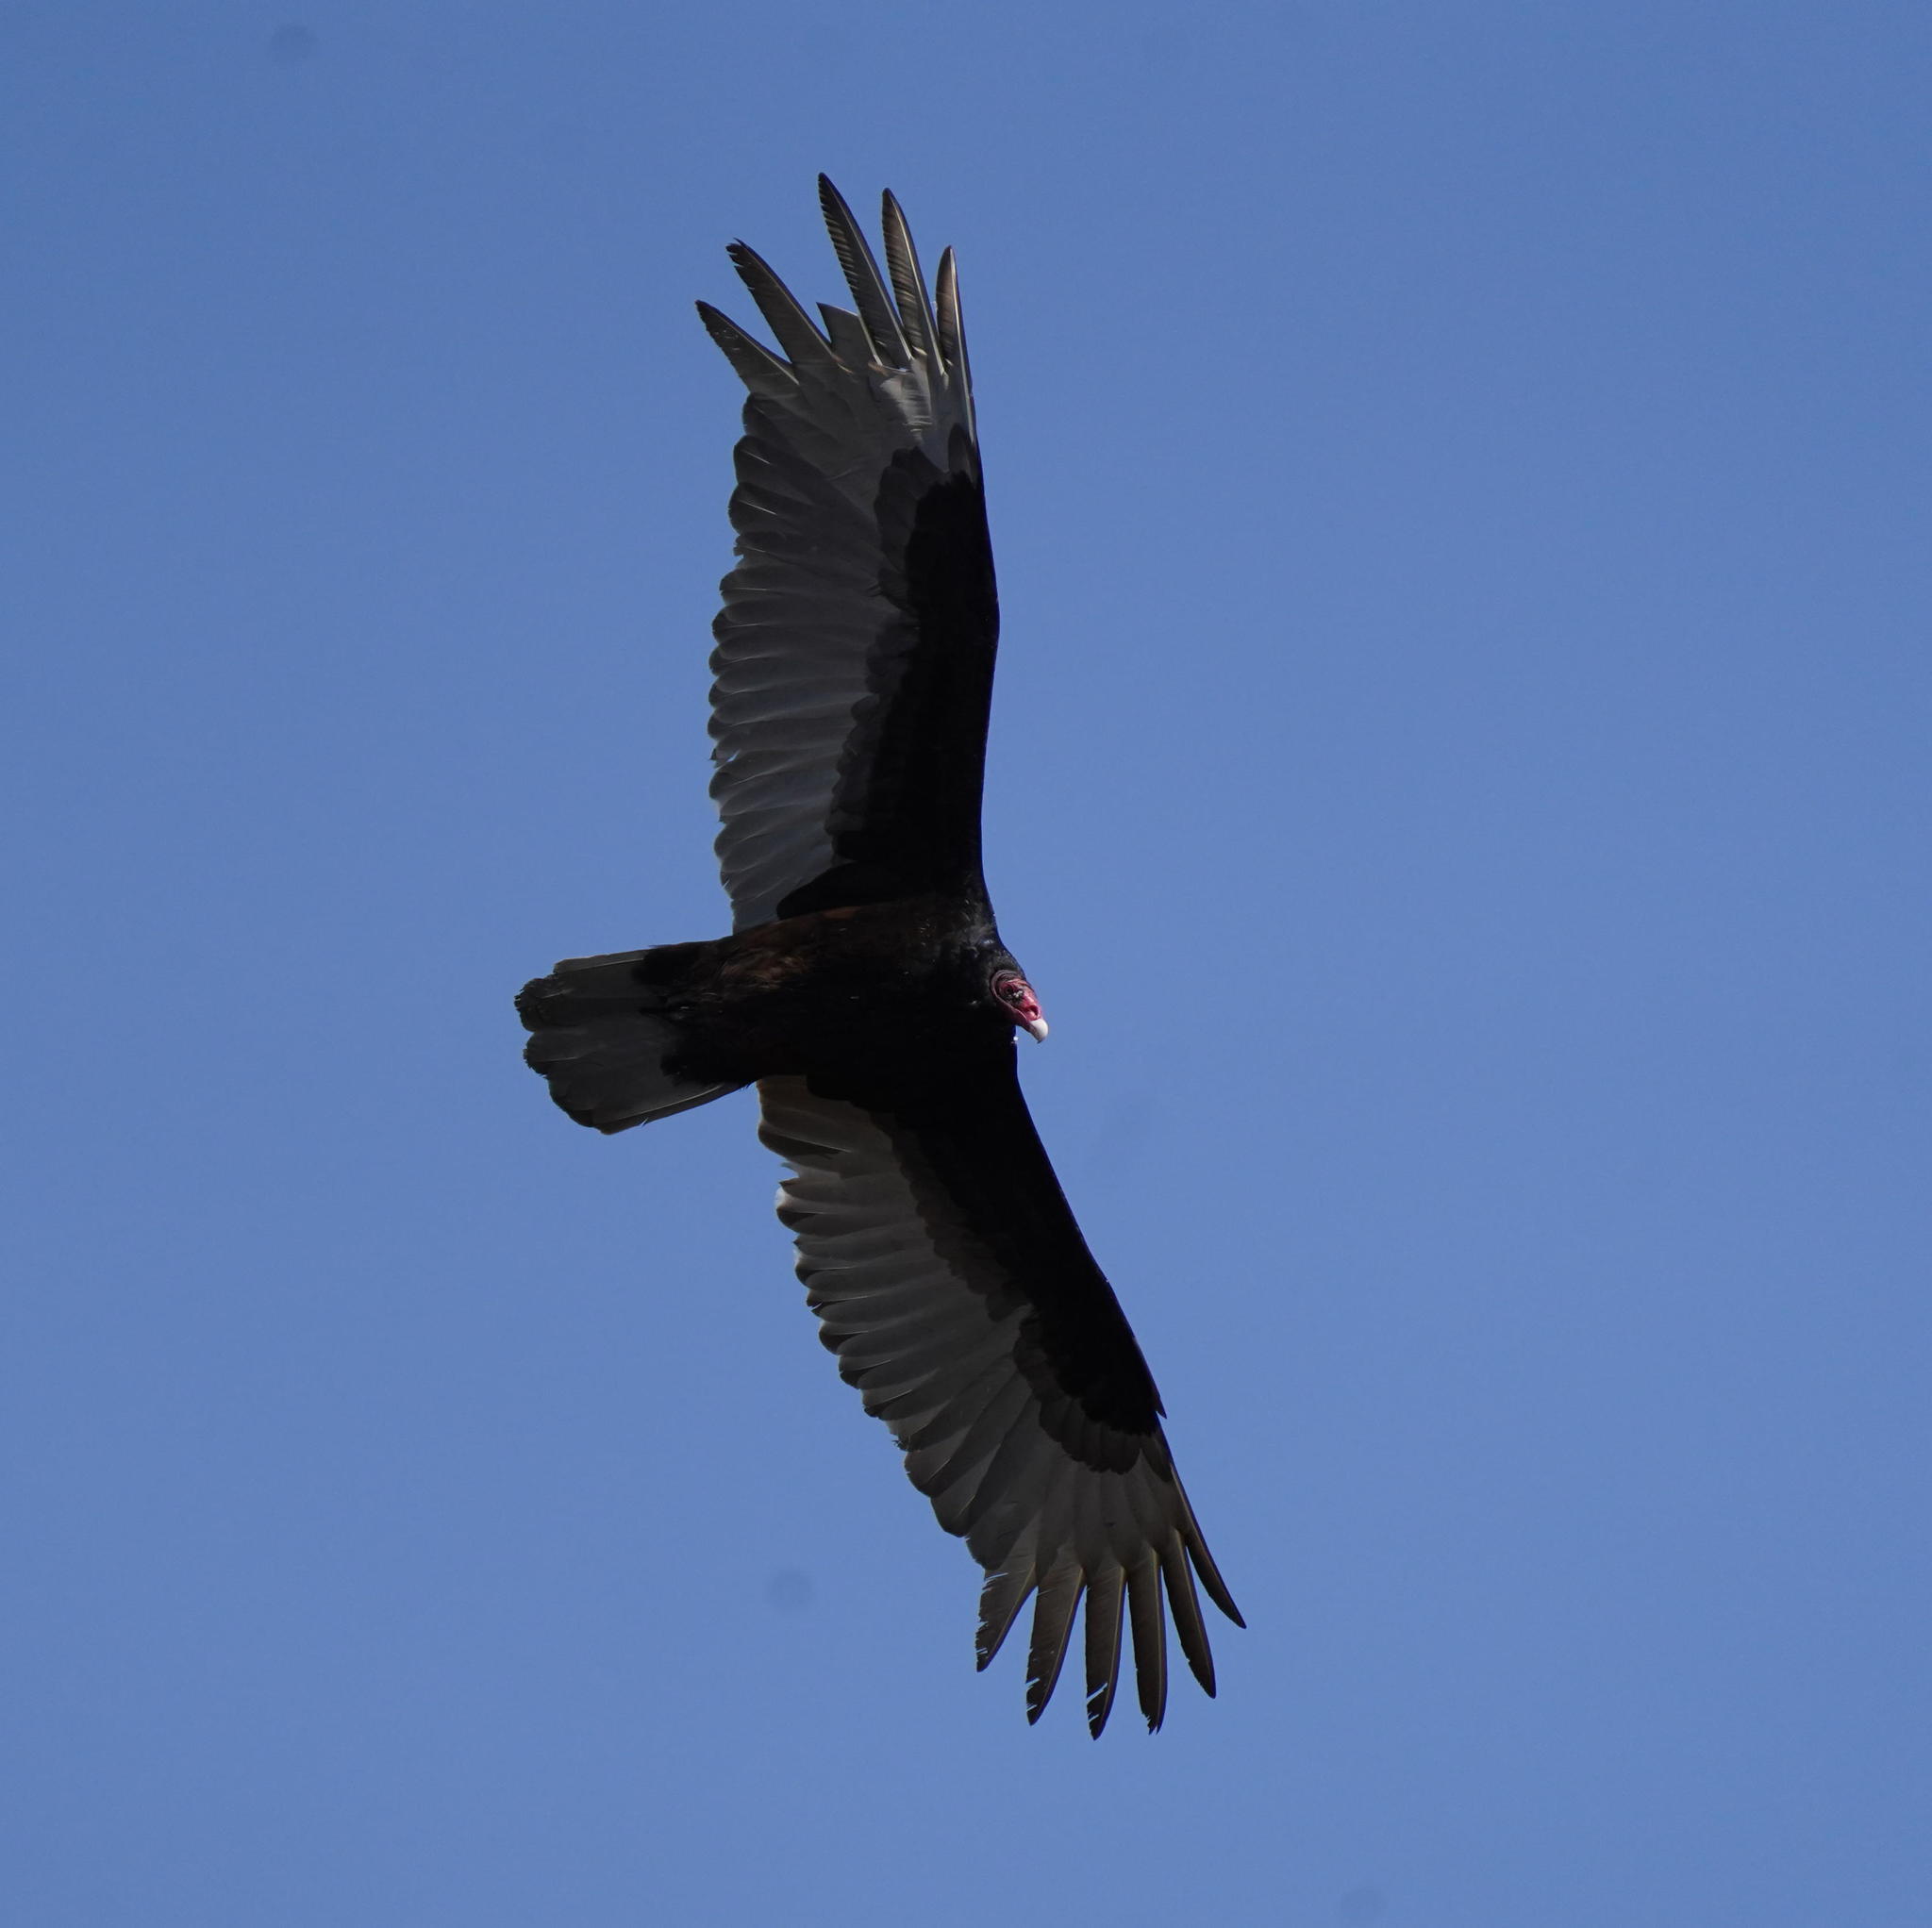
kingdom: Animalia
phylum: Chordata
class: Aves
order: Accipitriformes
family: Cathartidae
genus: Cathartes
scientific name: Cathartes aura
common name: Turkey vulture
